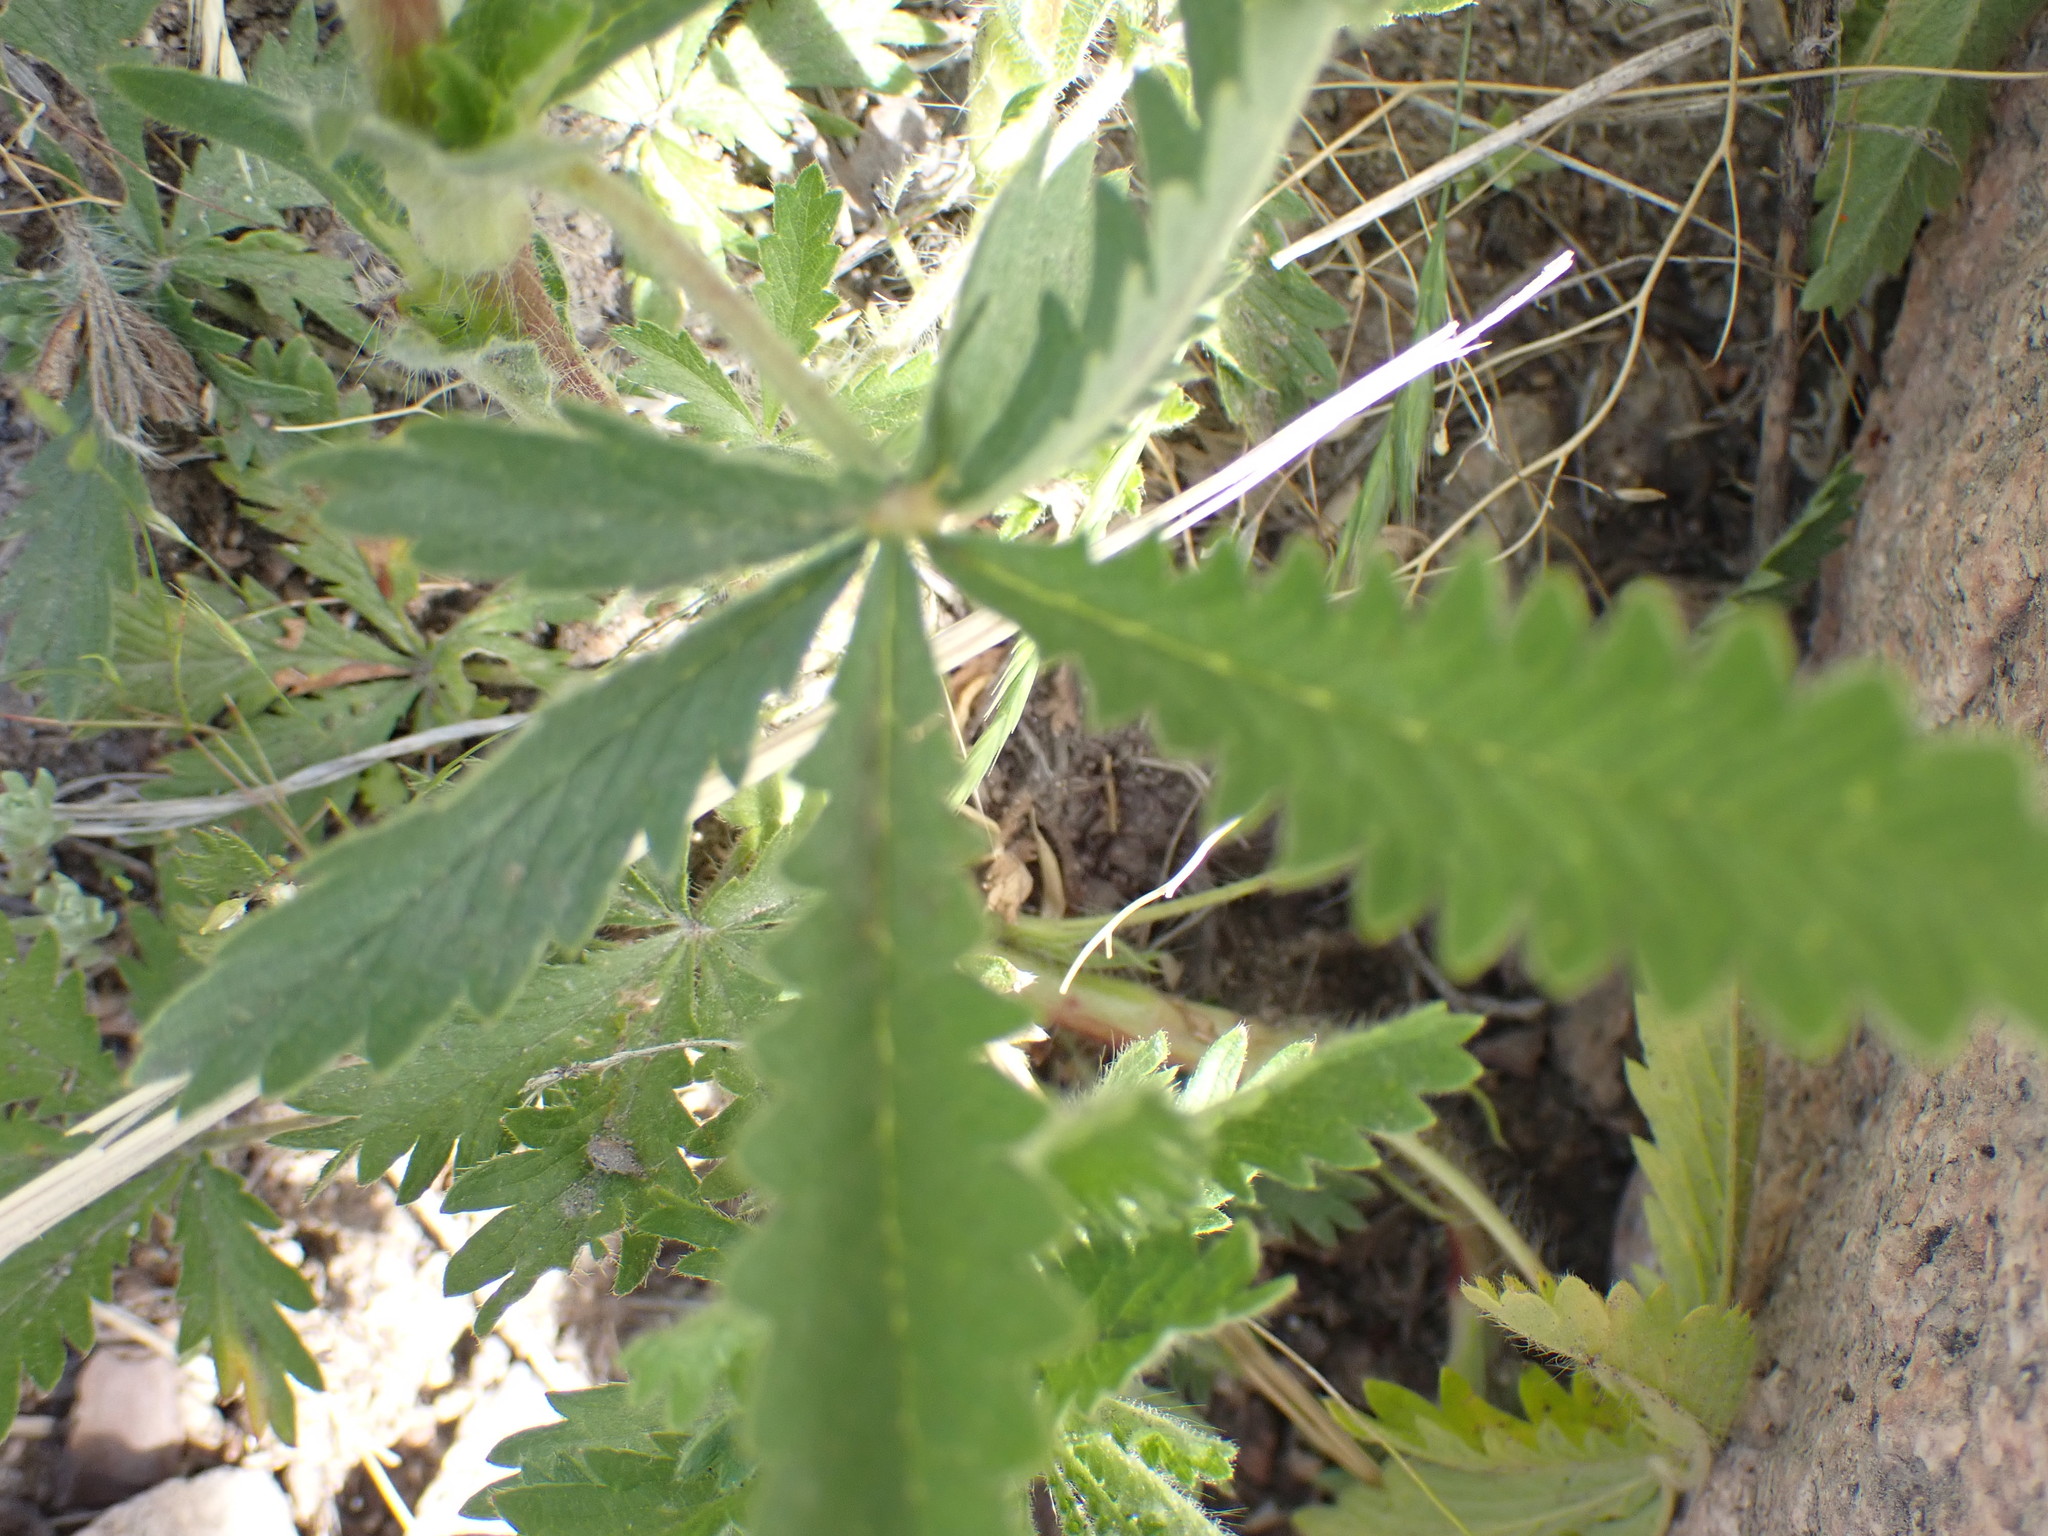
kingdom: Plantae
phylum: Tracheophyta
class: Magnoliopsida
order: Rosales
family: Rosaceae
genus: Potentilla
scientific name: Potentilla recta
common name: Sulphur cinquefoil
